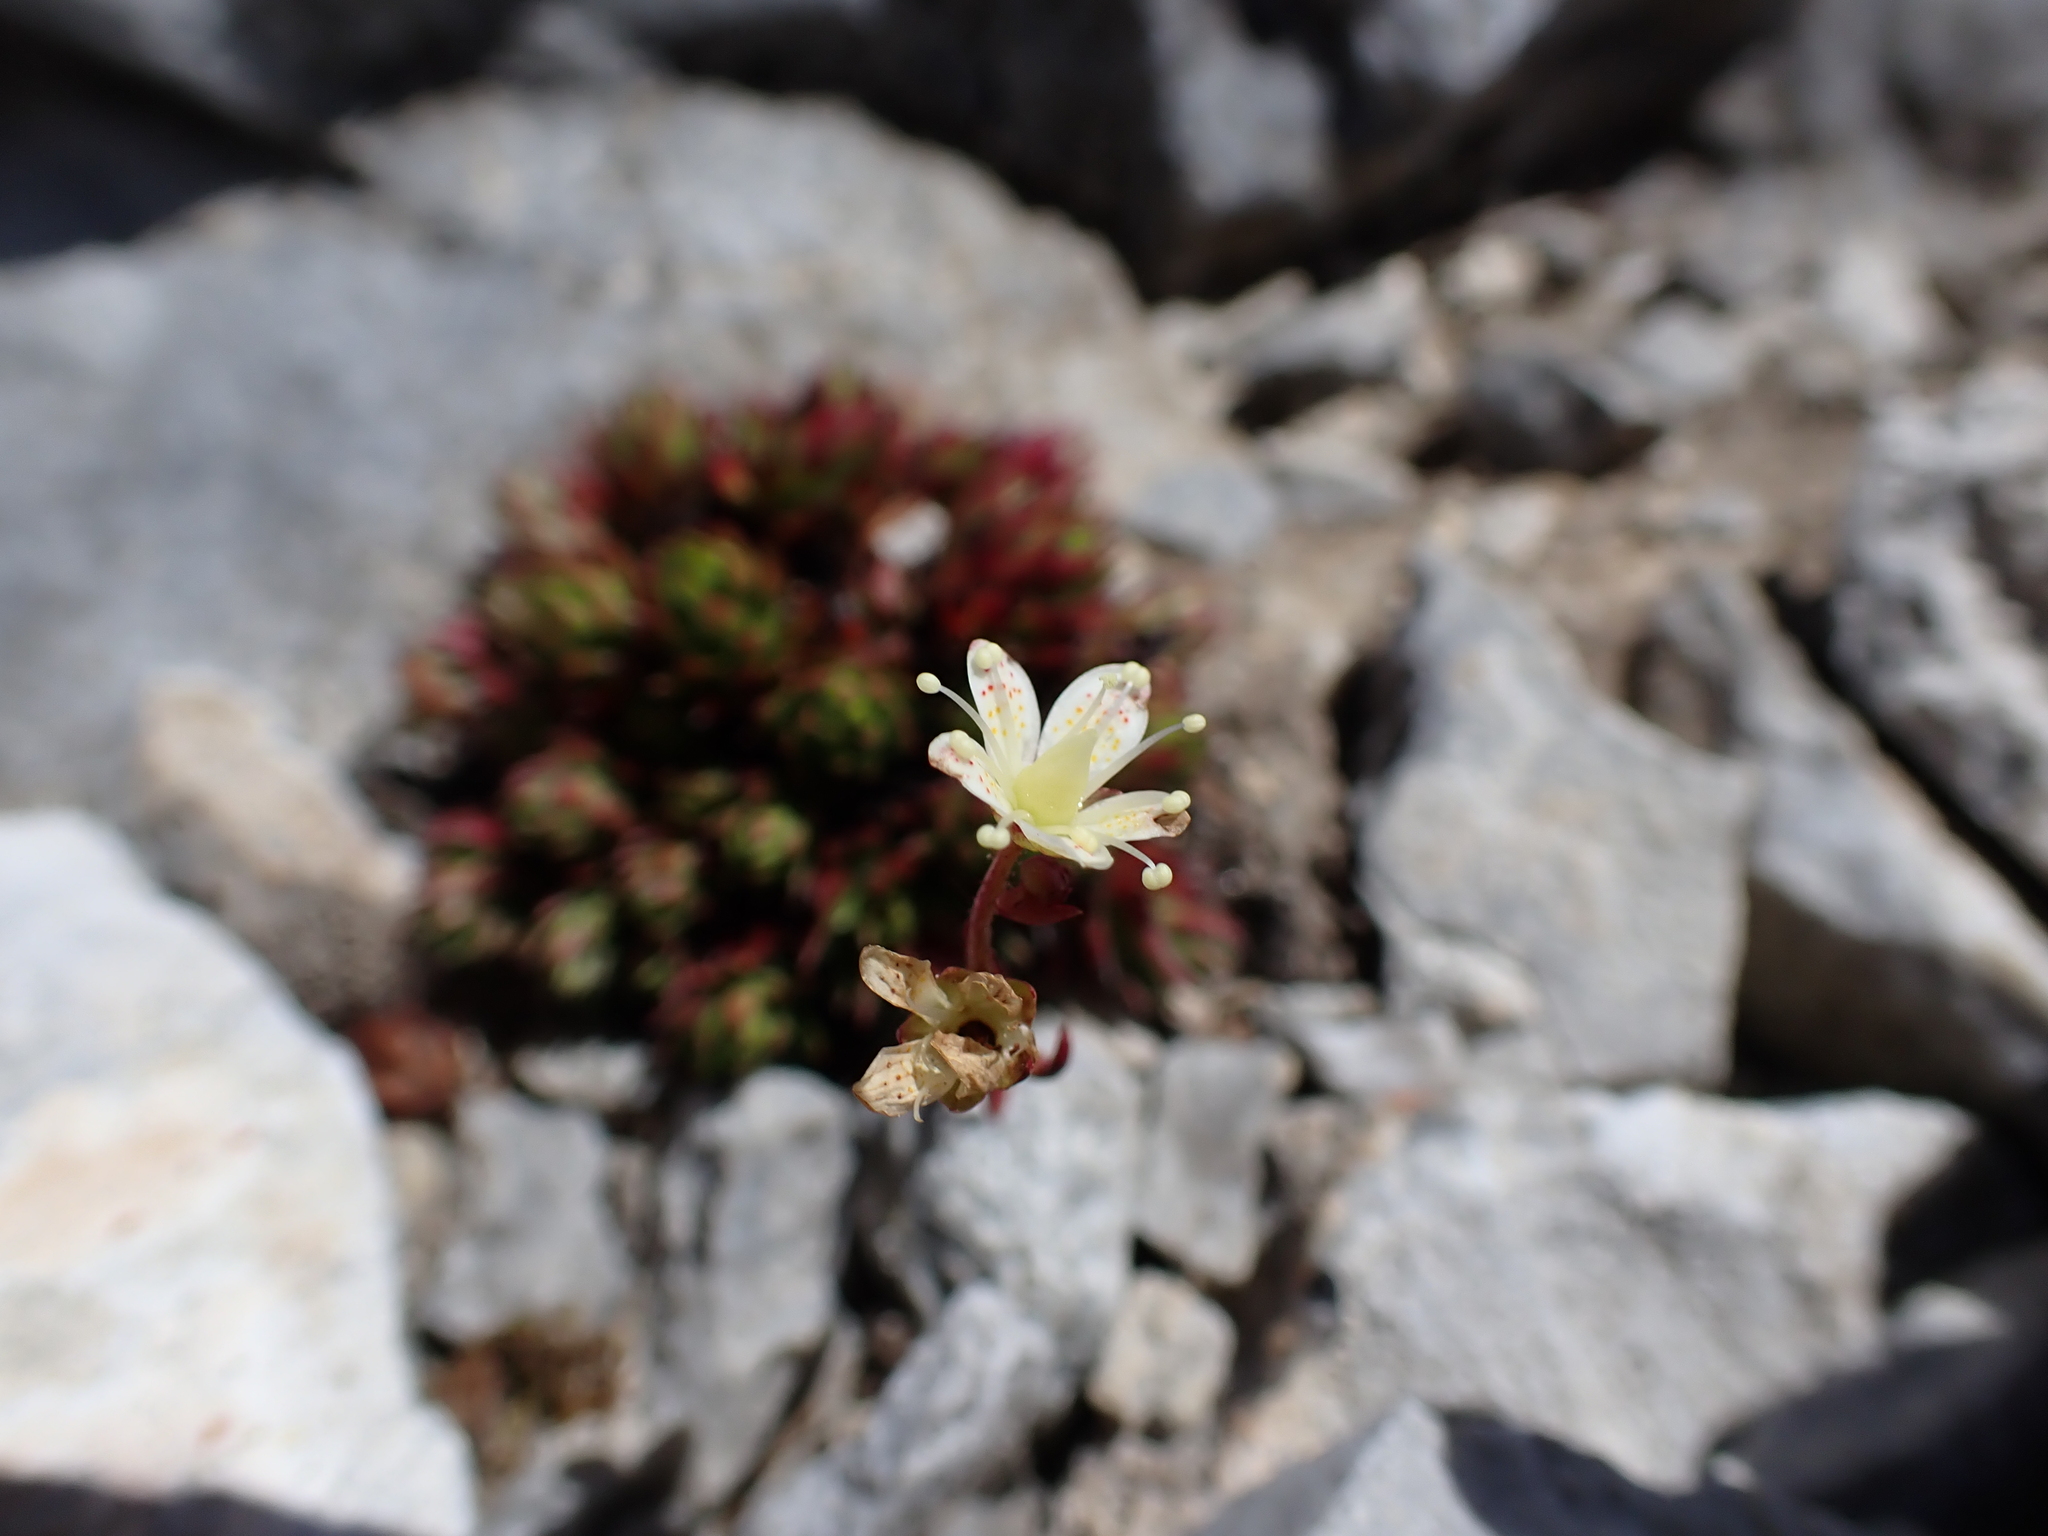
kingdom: Plantae
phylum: Tracheophyta
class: Magnoliopsida
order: Saxifragales
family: Saxifragaceae
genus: Saxifraga
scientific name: Saxifraga bronchialis
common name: Matted saxifrage
